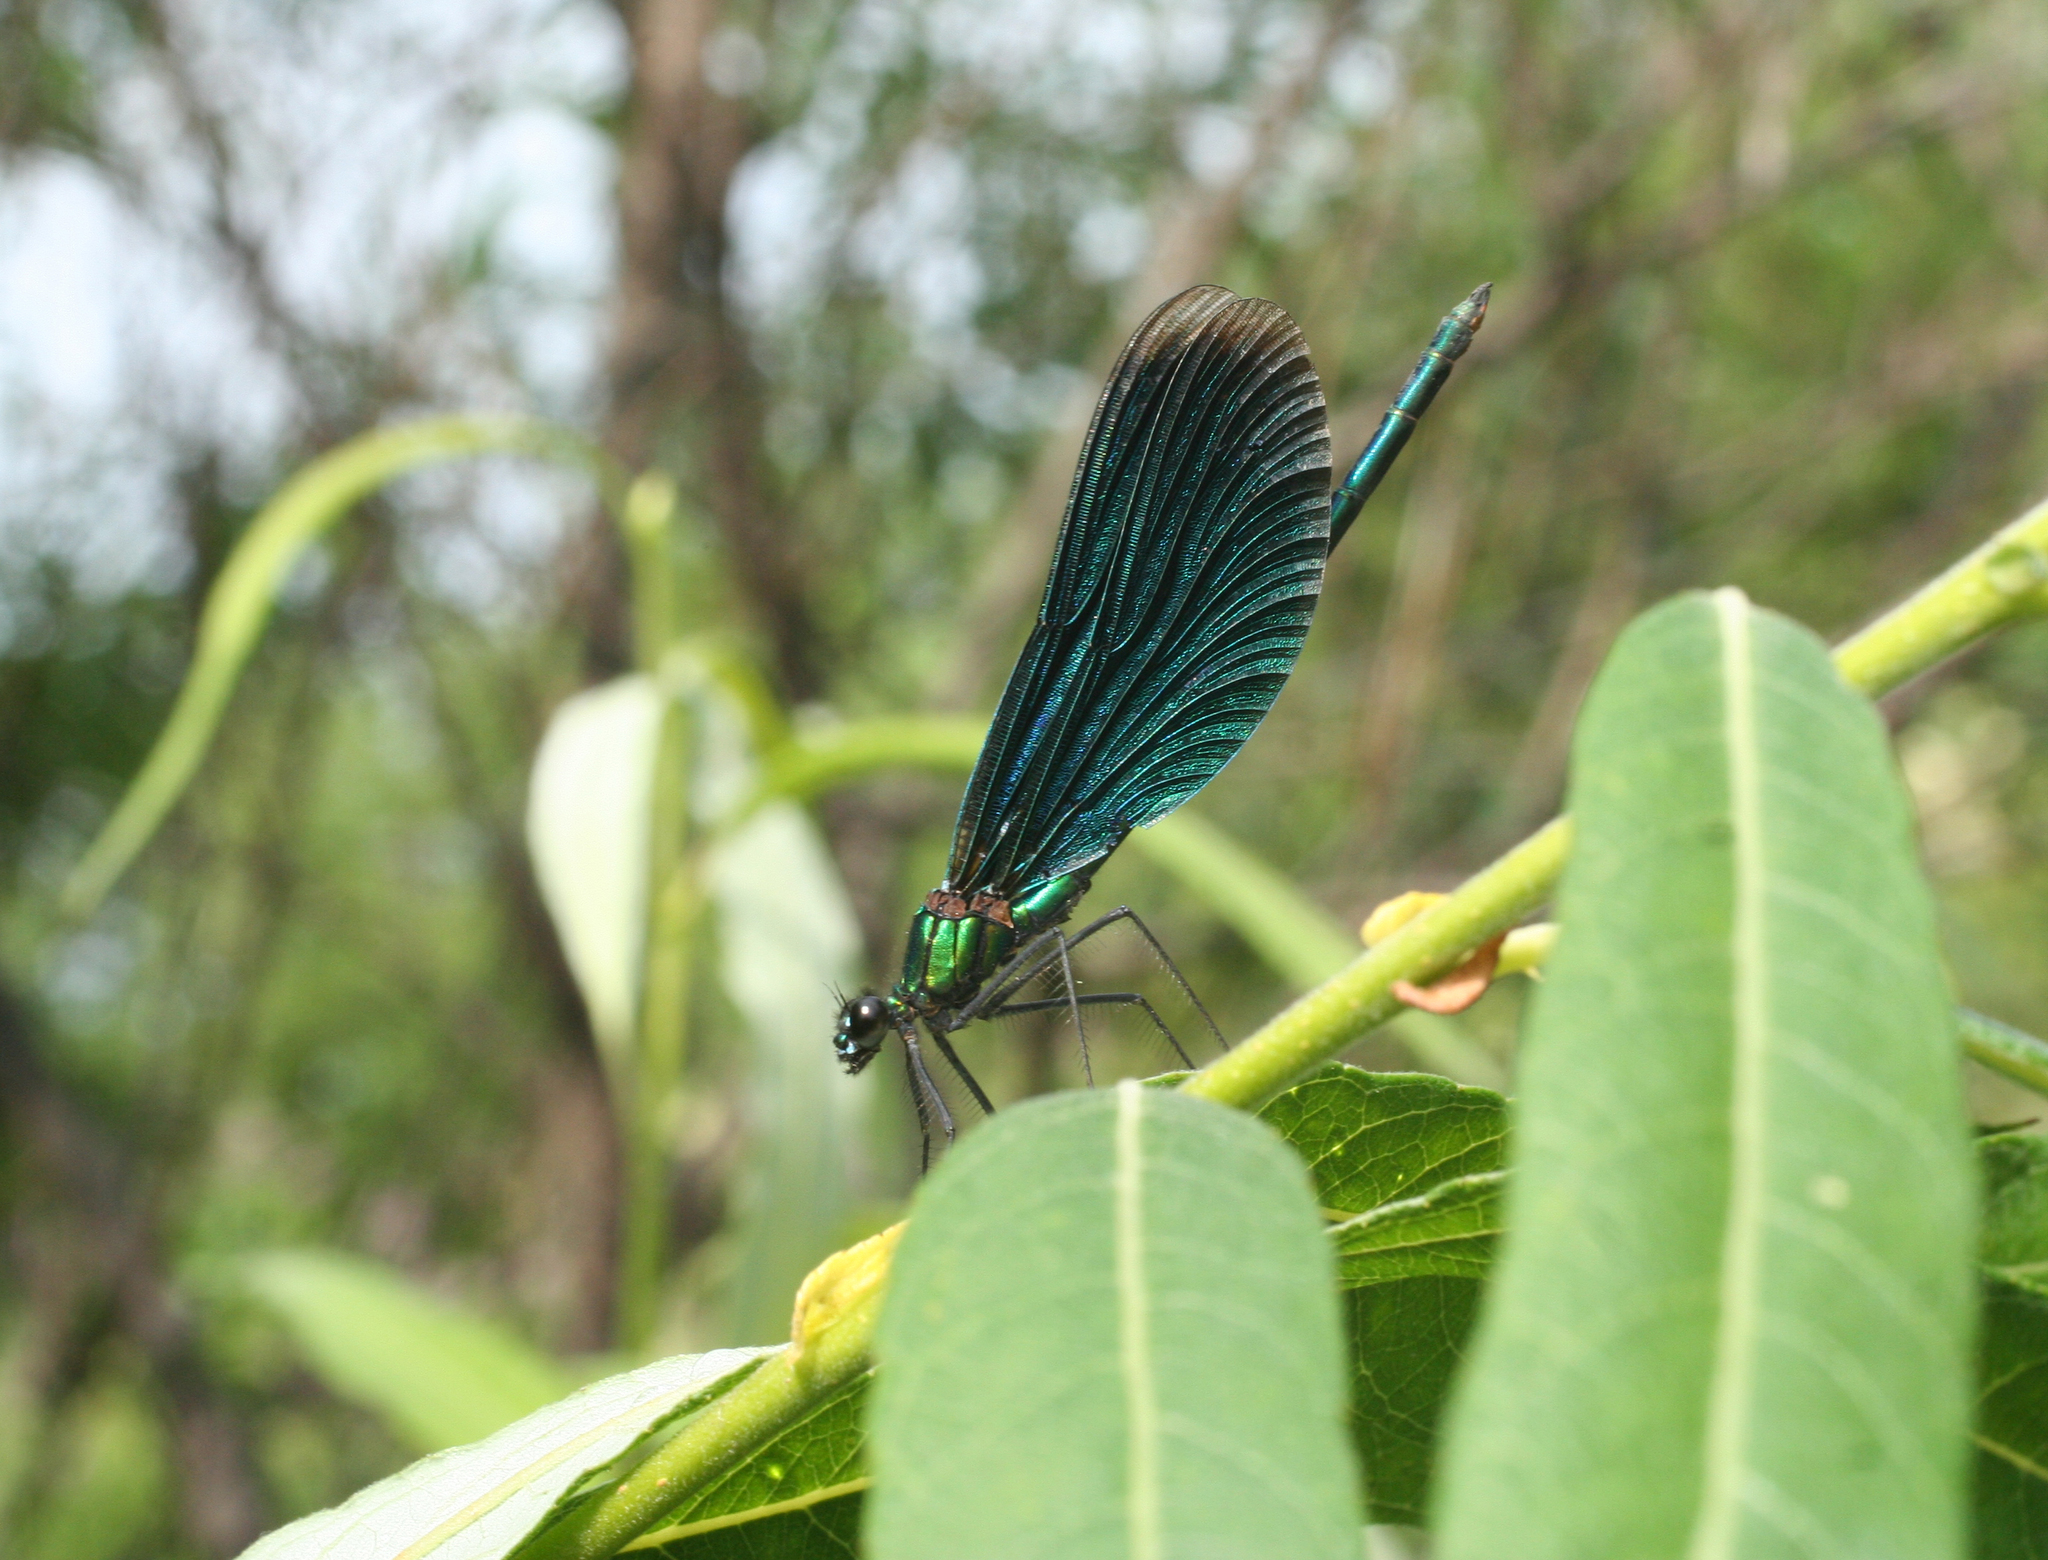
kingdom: Animalia
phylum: Arthropoda
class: Insecta
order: Odonata
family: Calopterygidae
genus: Calopteryx
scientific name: Calopteryx virgo
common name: Beautiful demoiselle
